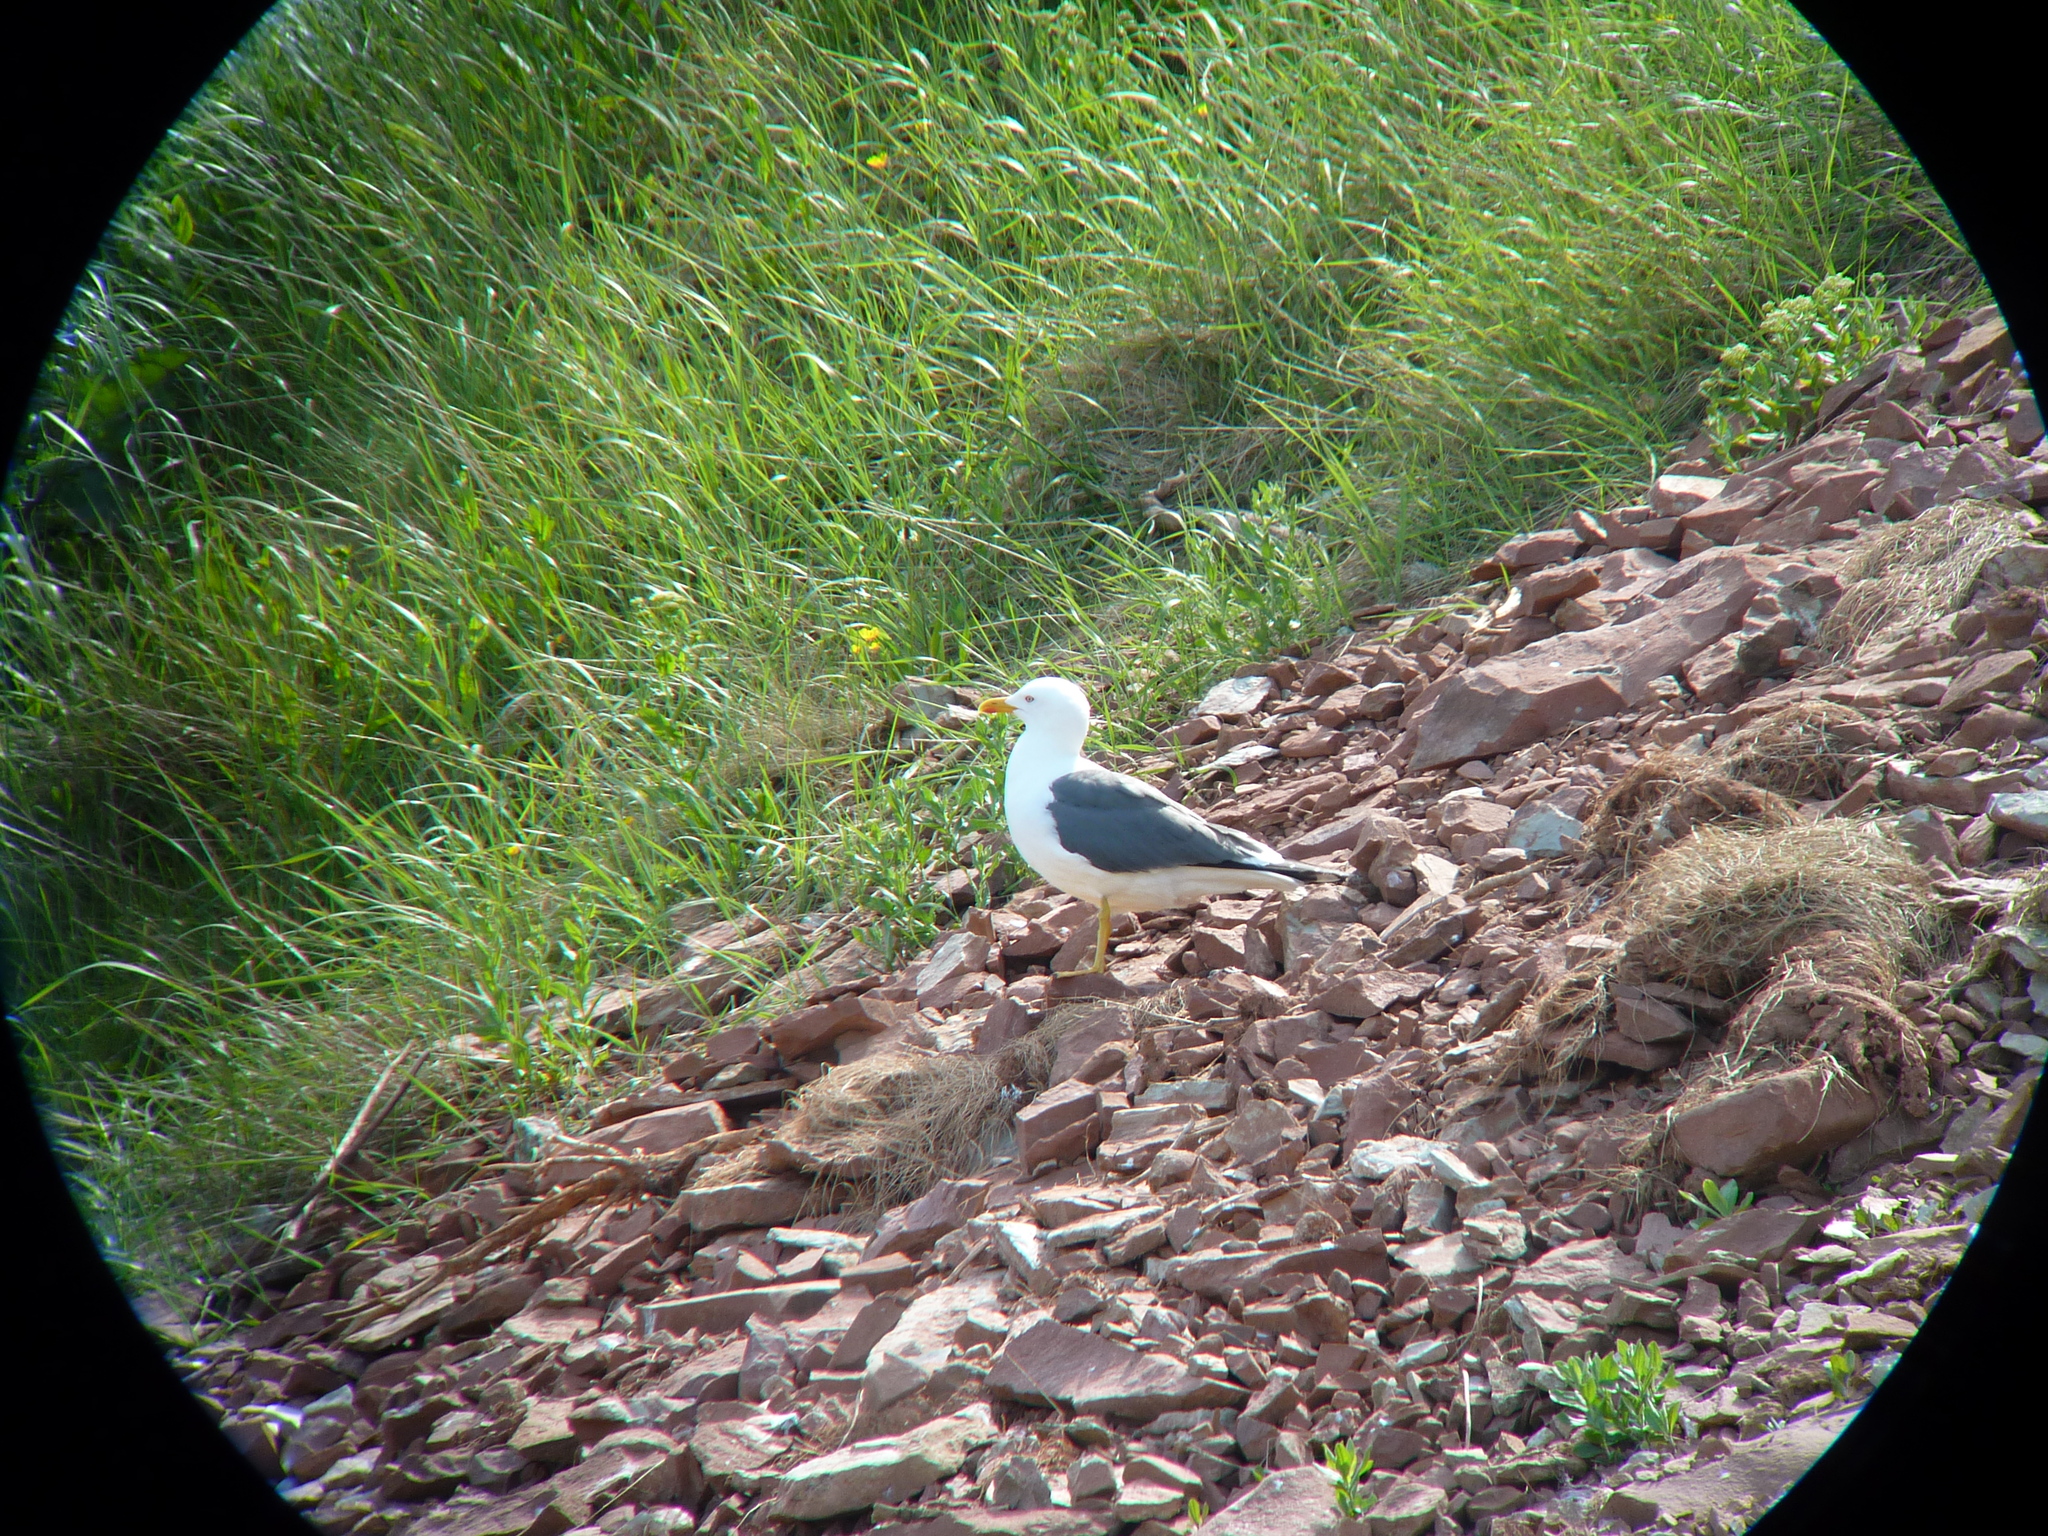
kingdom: Animalia
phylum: Chordata
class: Aves
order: Charadriiformes
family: Laridae
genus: Larus
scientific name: Larus fuscus
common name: Lesser black-backed gull
